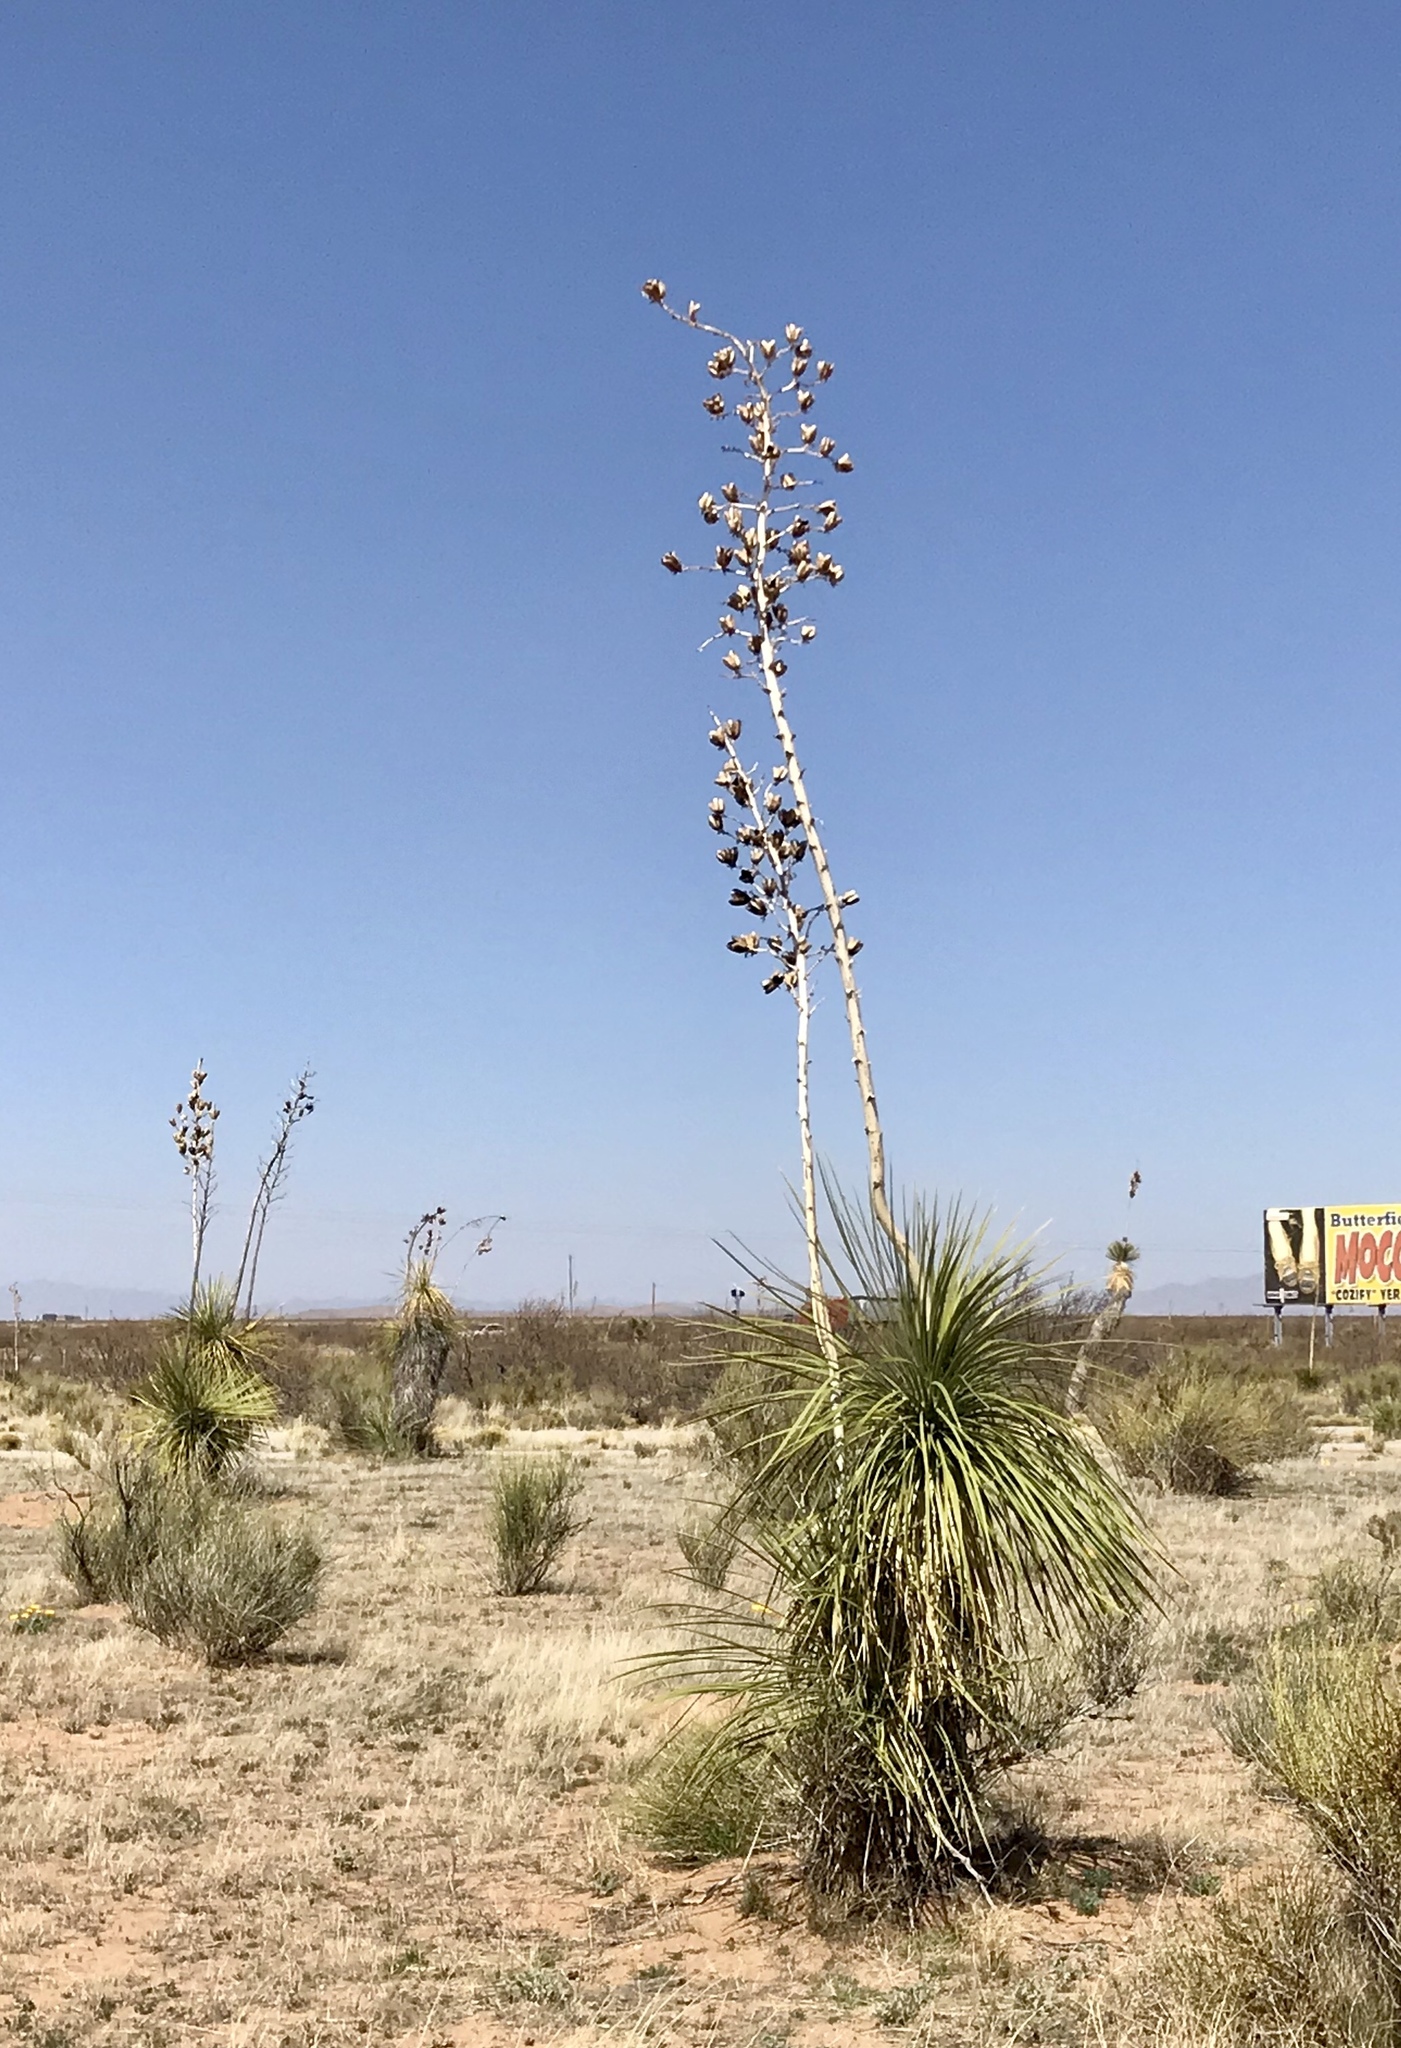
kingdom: Plantae
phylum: Tracheophyta
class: Liliopsida
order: Asparagales
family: Asparagaceae
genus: Yucca
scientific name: Yucca elata
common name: Palmella
